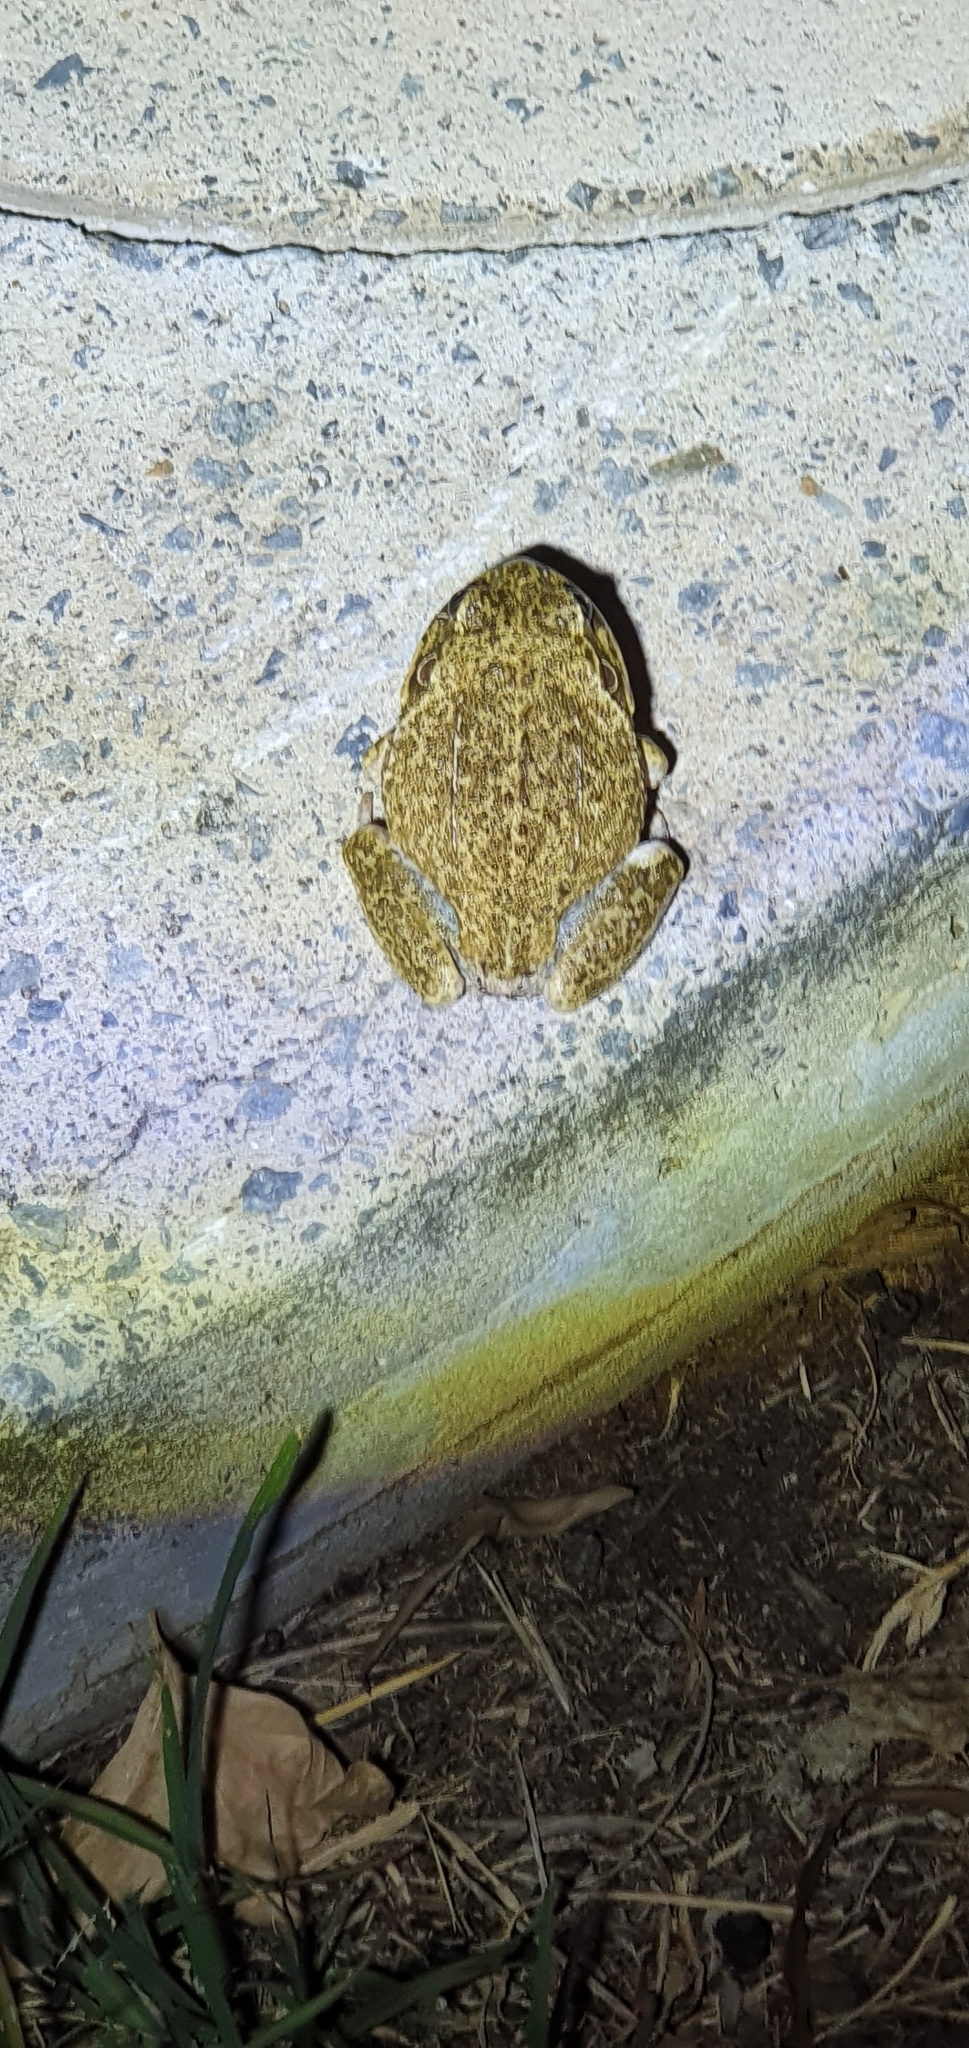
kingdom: Animalia
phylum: Chordata
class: Amphibia
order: Anura
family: Pelodryadidae
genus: Ranoidea
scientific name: Ranoidea novaehollandiae
